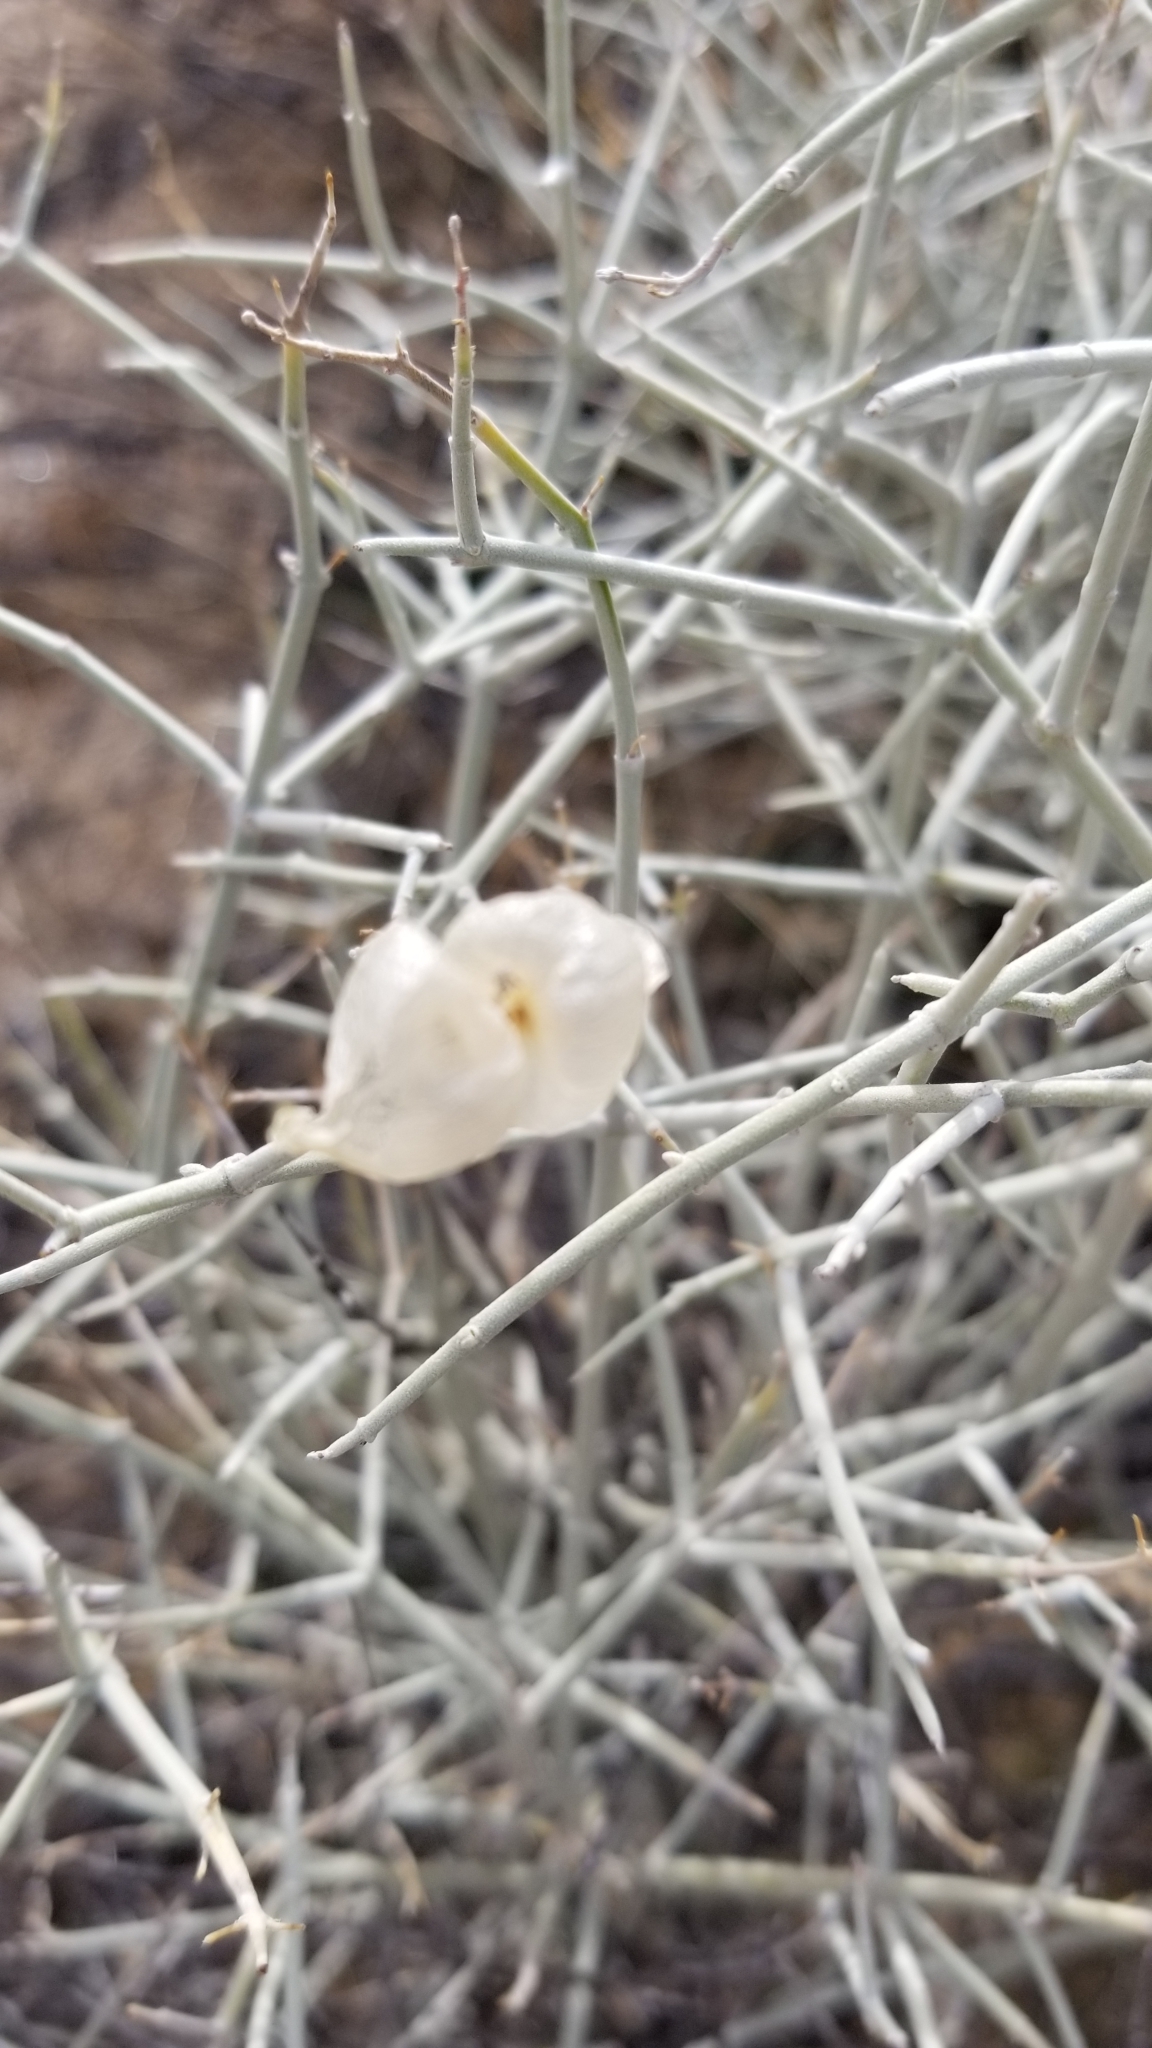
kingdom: Plantae
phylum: Tracheophyta
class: Magnoliopsida
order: Lamiales
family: Lamiaceae
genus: Scutellaria
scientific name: Scutellaria mexicana
